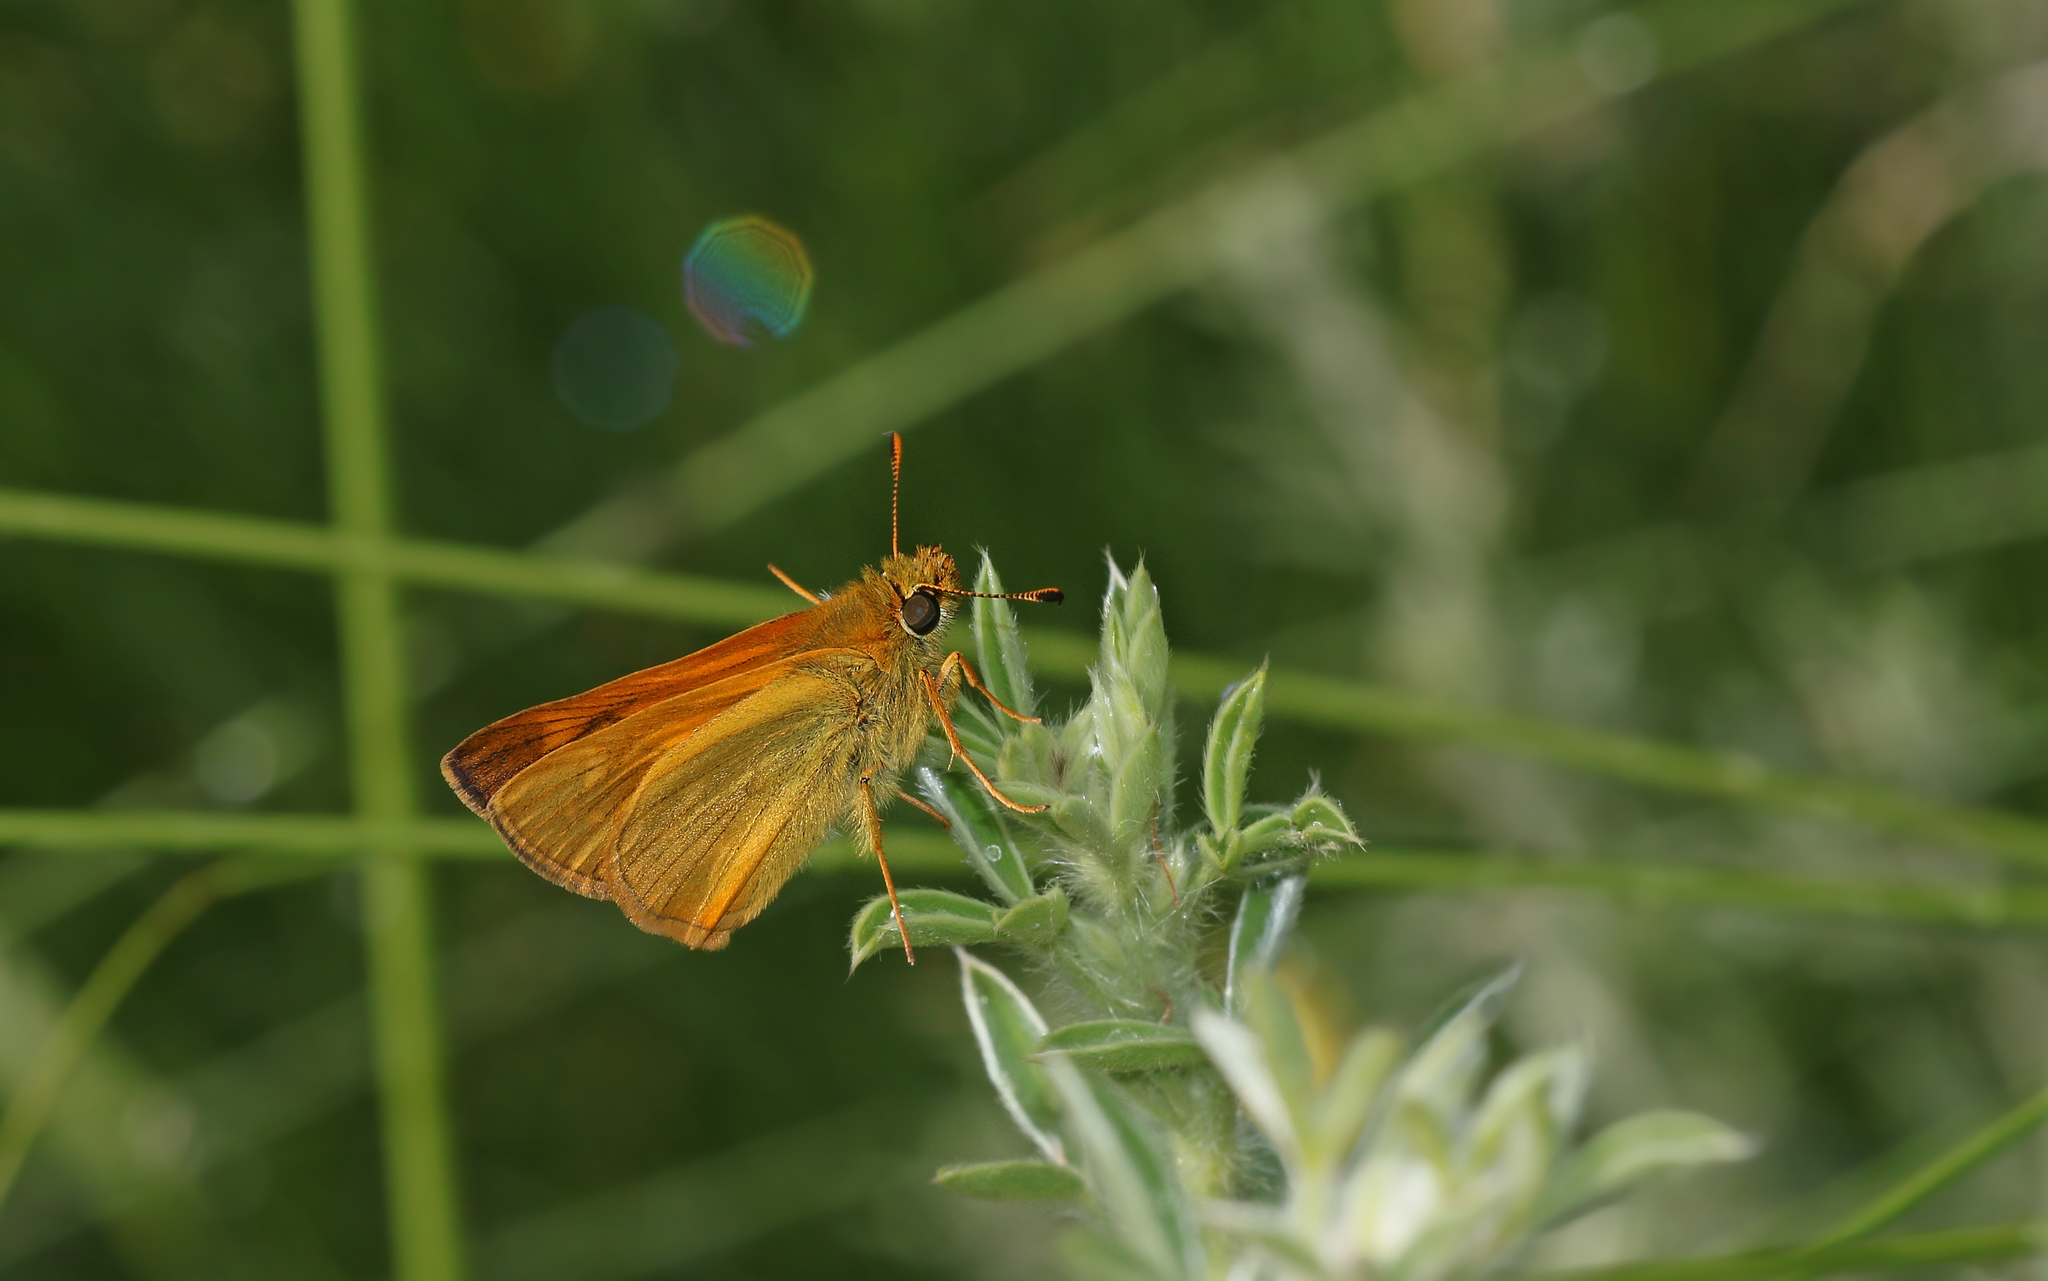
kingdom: Animalia
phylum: Arthropoda
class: Insecta
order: Lepidoptera
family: Hesperiidae
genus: Ochlodes
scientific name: Ochlodes venata
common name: Large skipper
